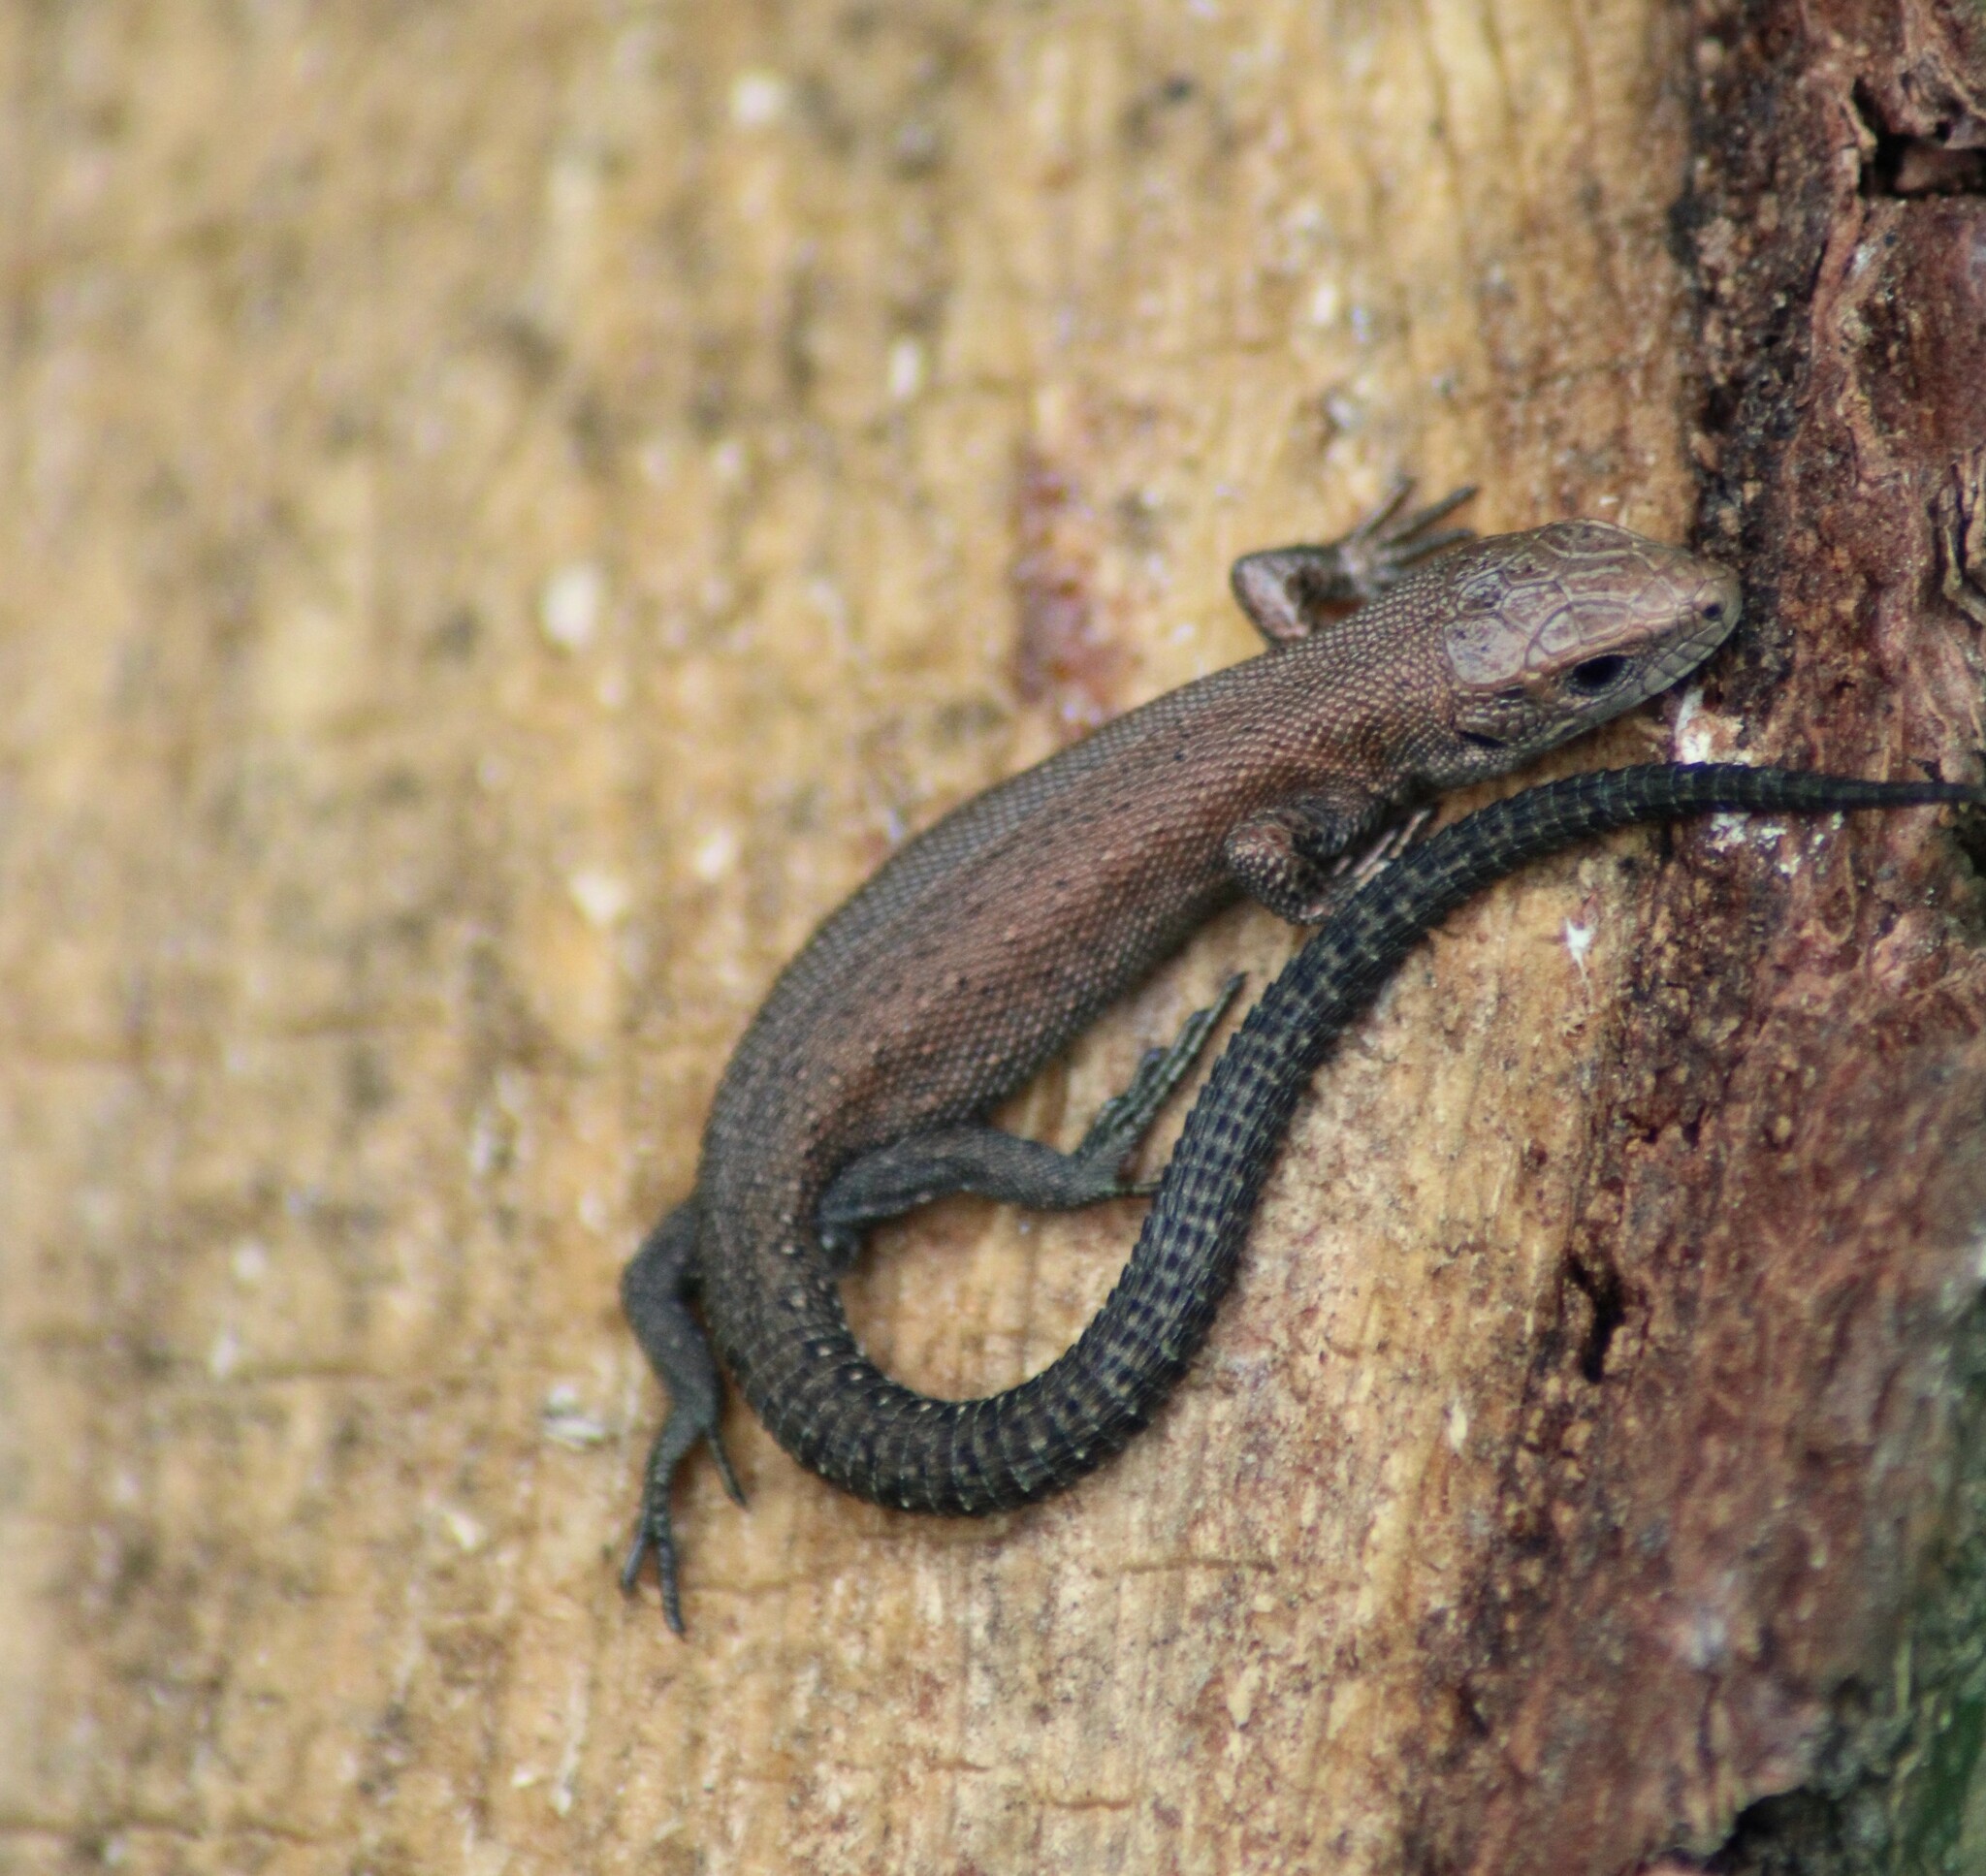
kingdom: Animalia
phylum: Chordata
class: Squamata
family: Lacertidae
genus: Zootoca
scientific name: Zootoca vivipara
